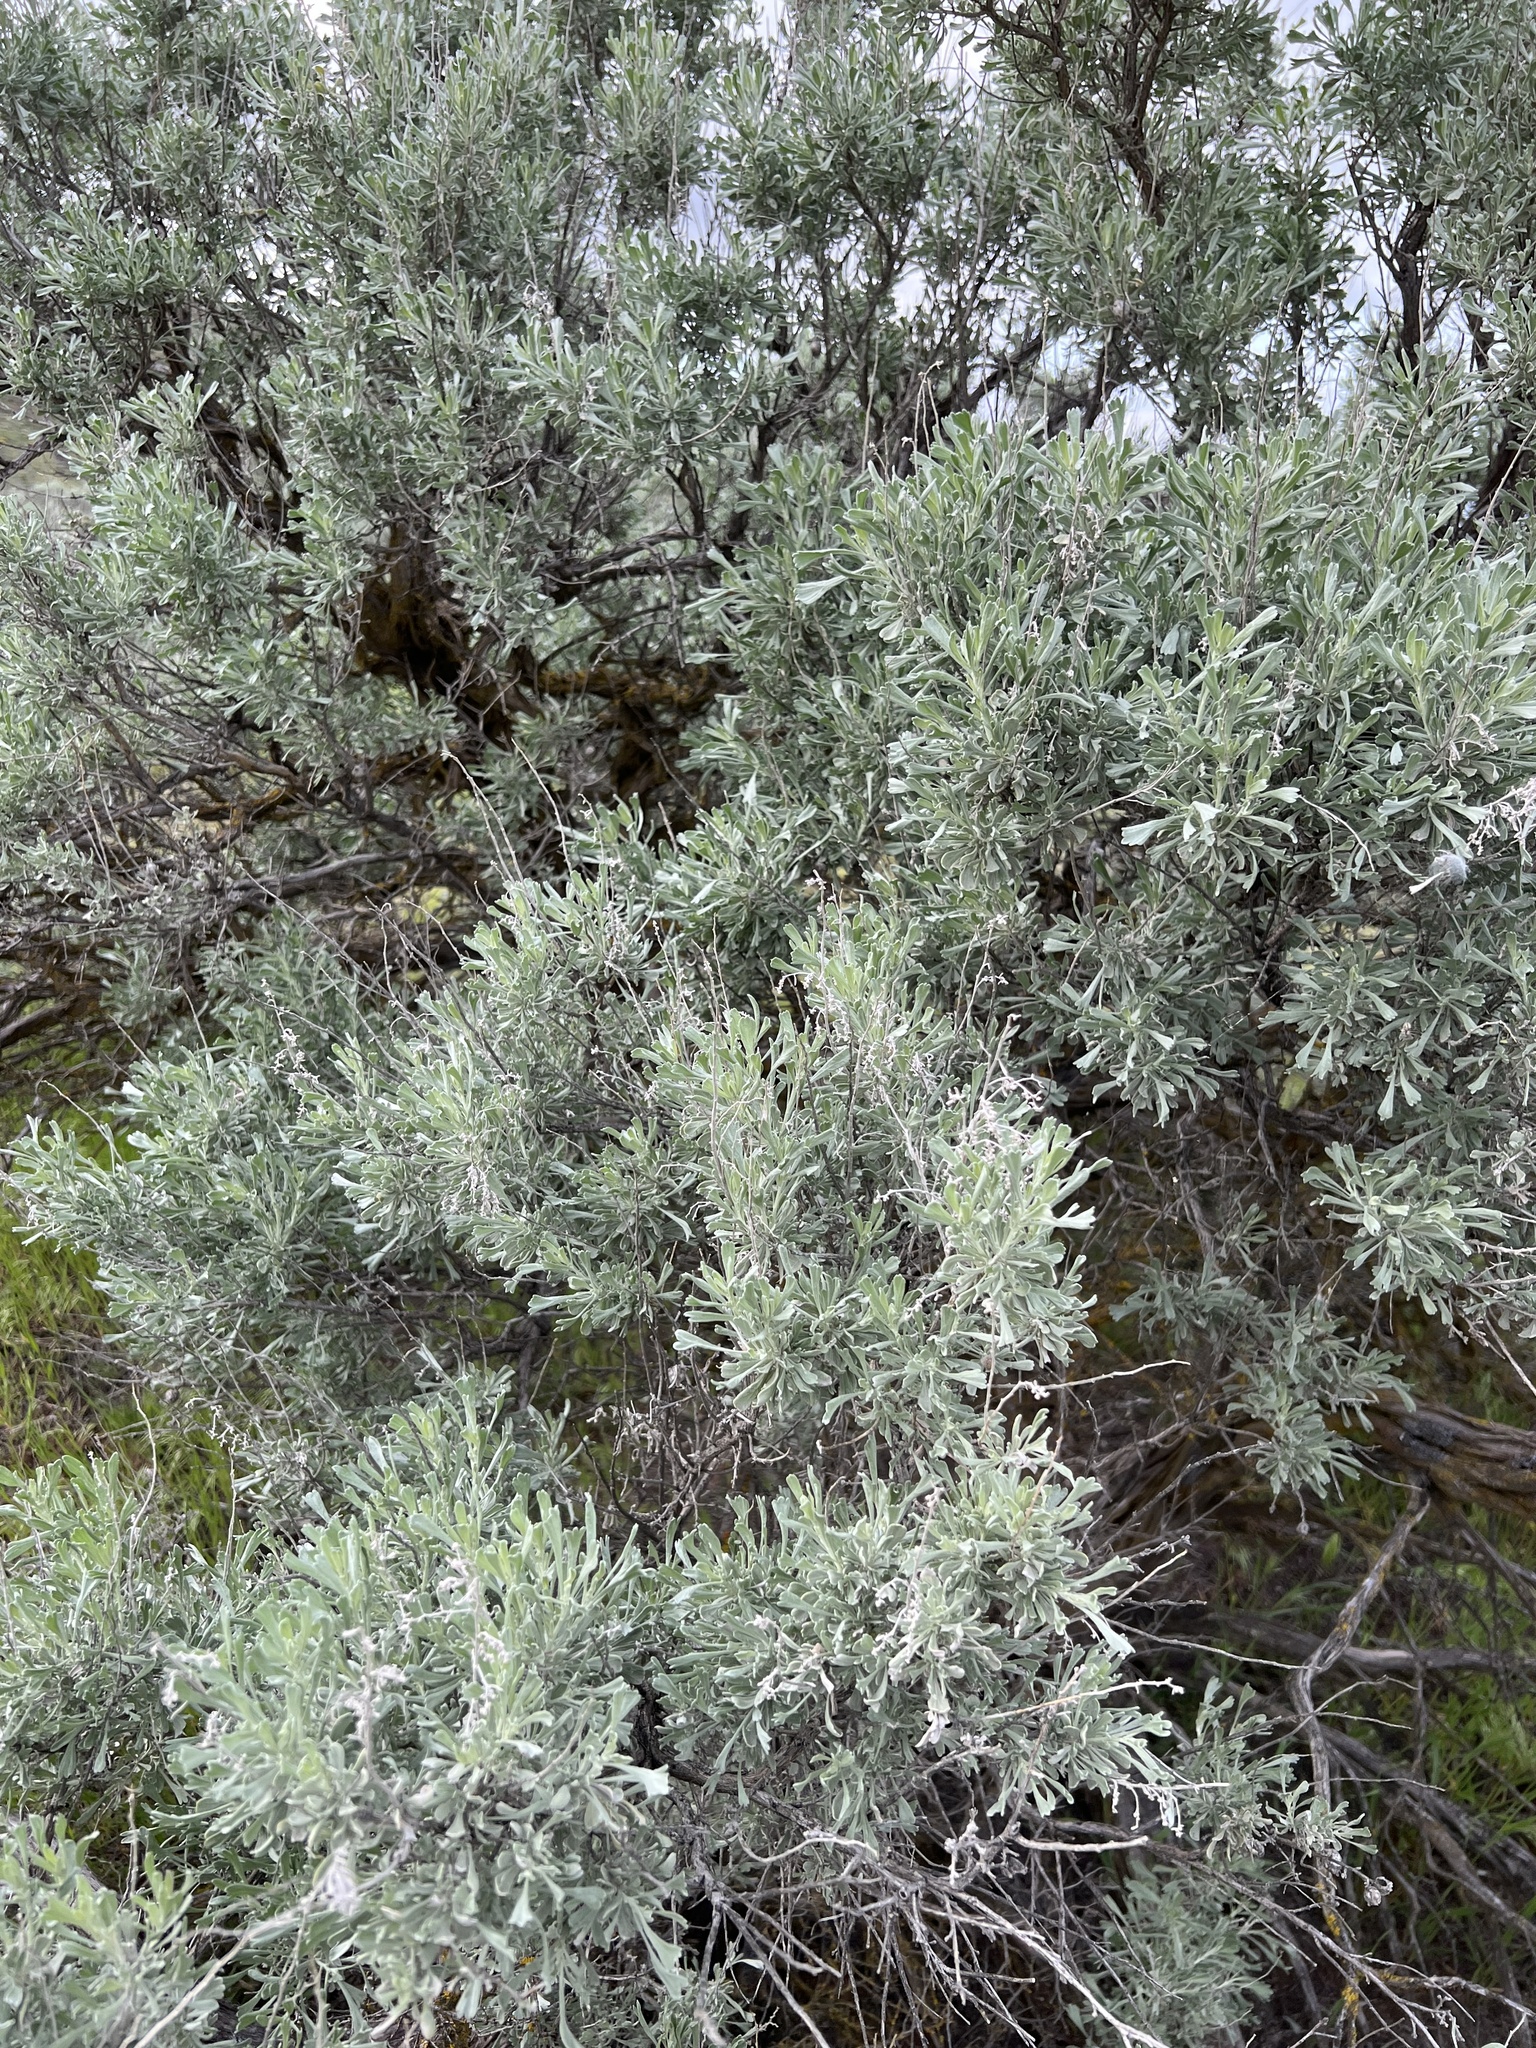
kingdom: Plantae
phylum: Tracheophyta
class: Magnoliopsida
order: Asterales
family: Asteraceae
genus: Artemisia
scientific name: Artemisia tridentata
